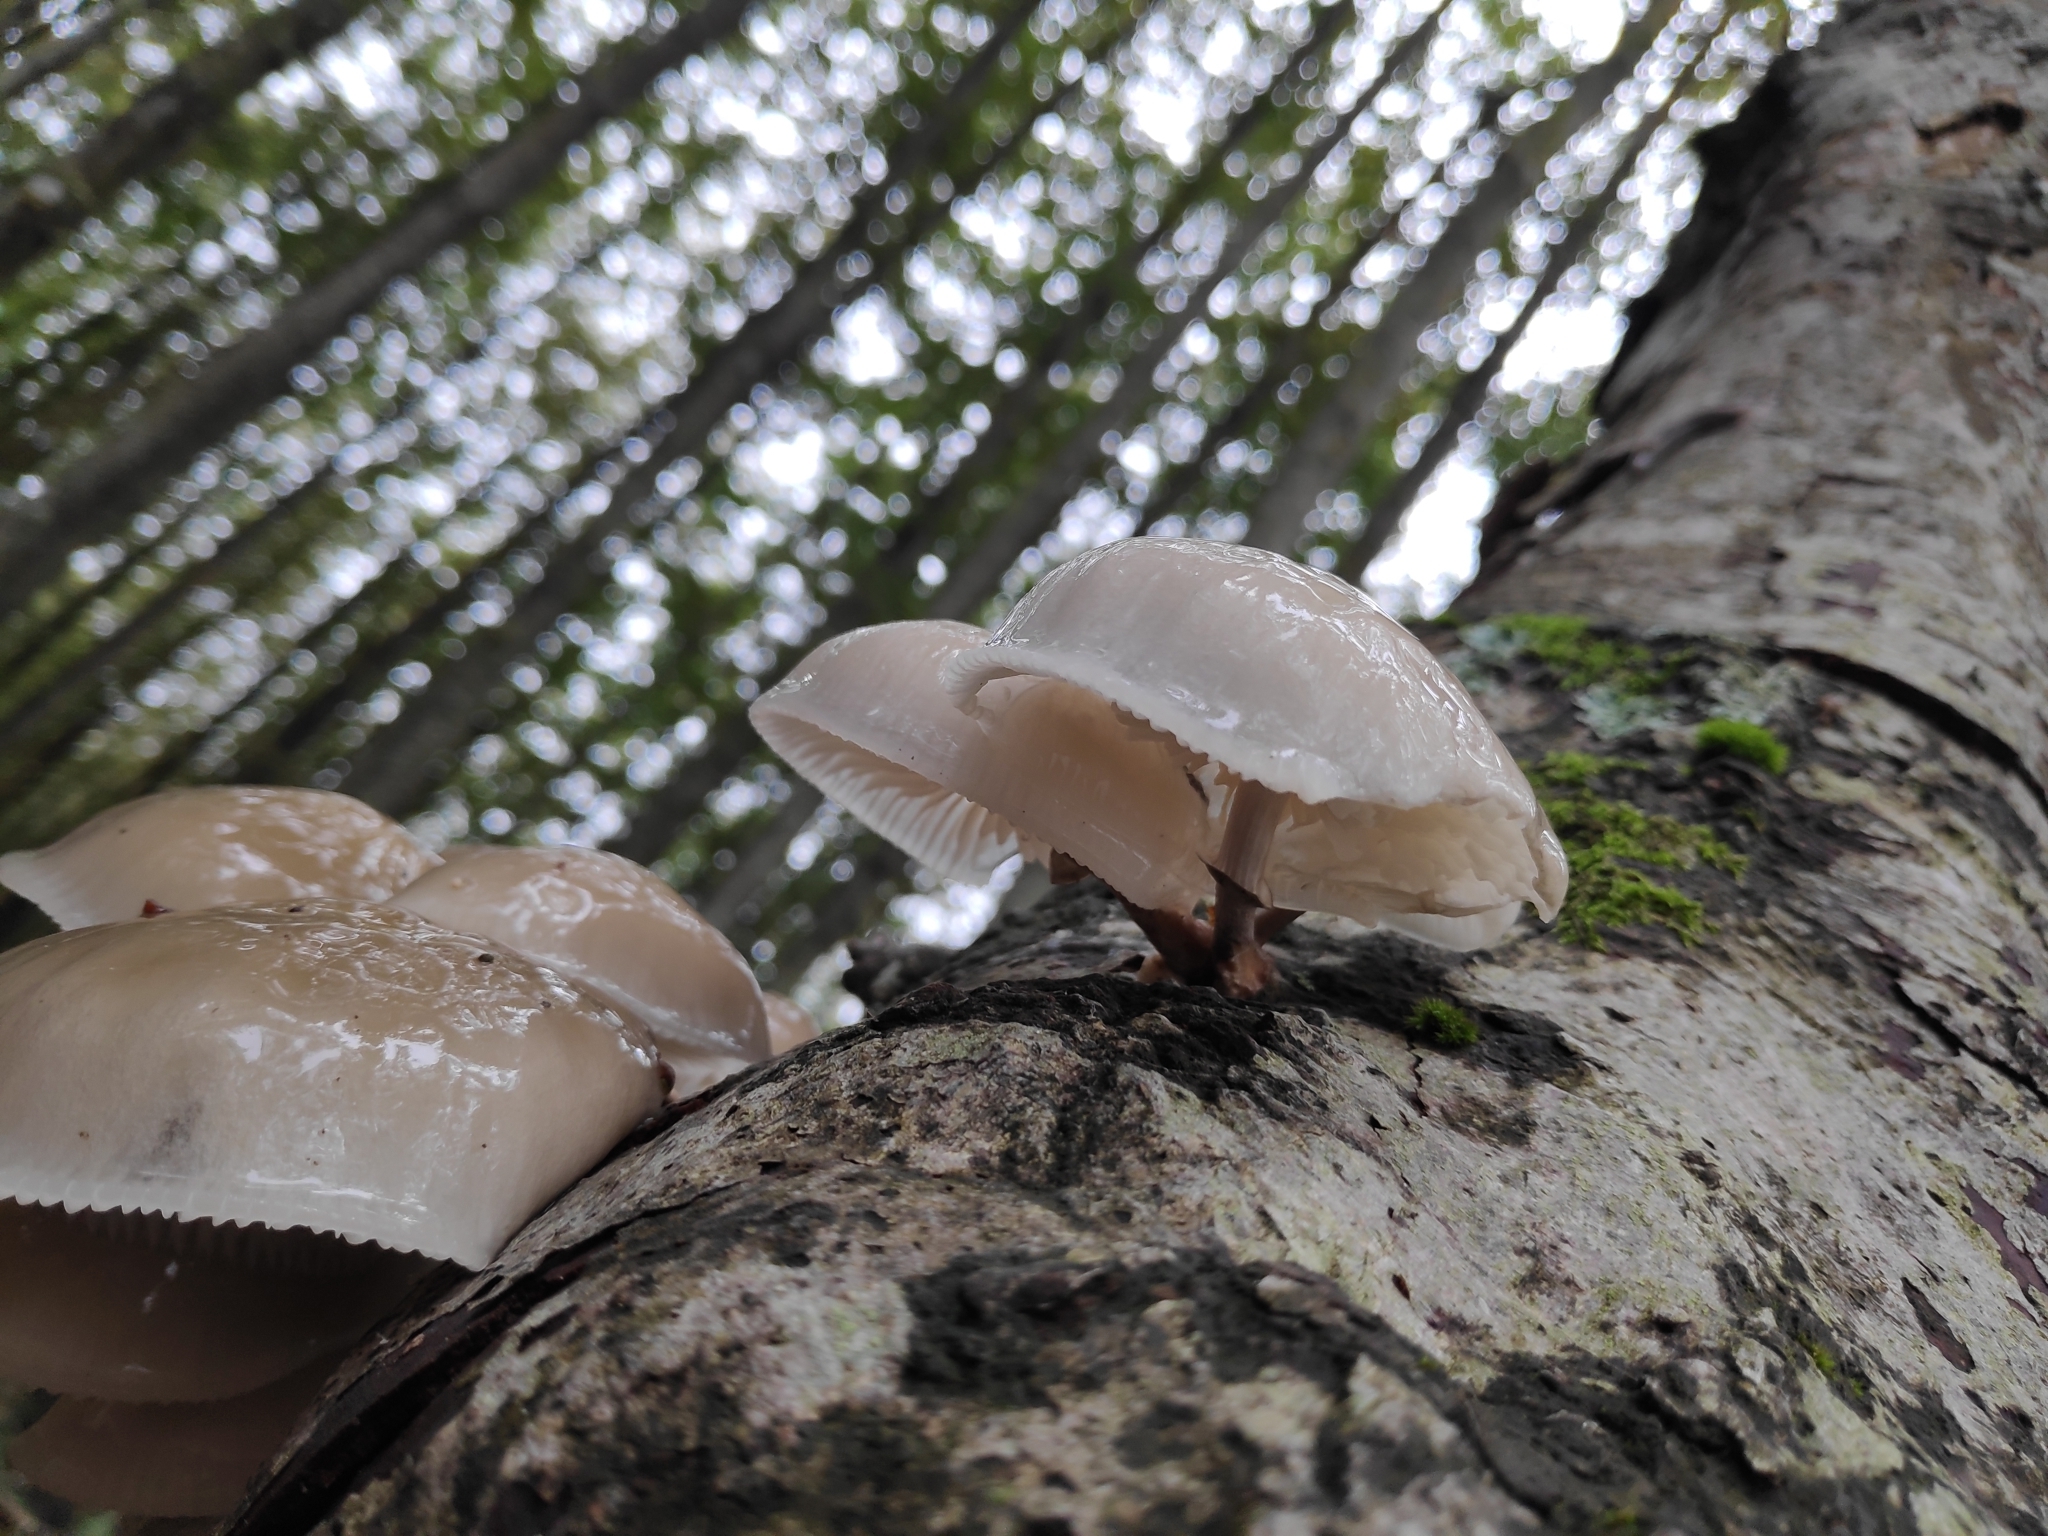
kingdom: Fungi
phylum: Basidiomycota
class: Agaricomycetes
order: Agaricales
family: Physalacriaceae
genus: Mucidula
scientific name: Mucidula mucida
